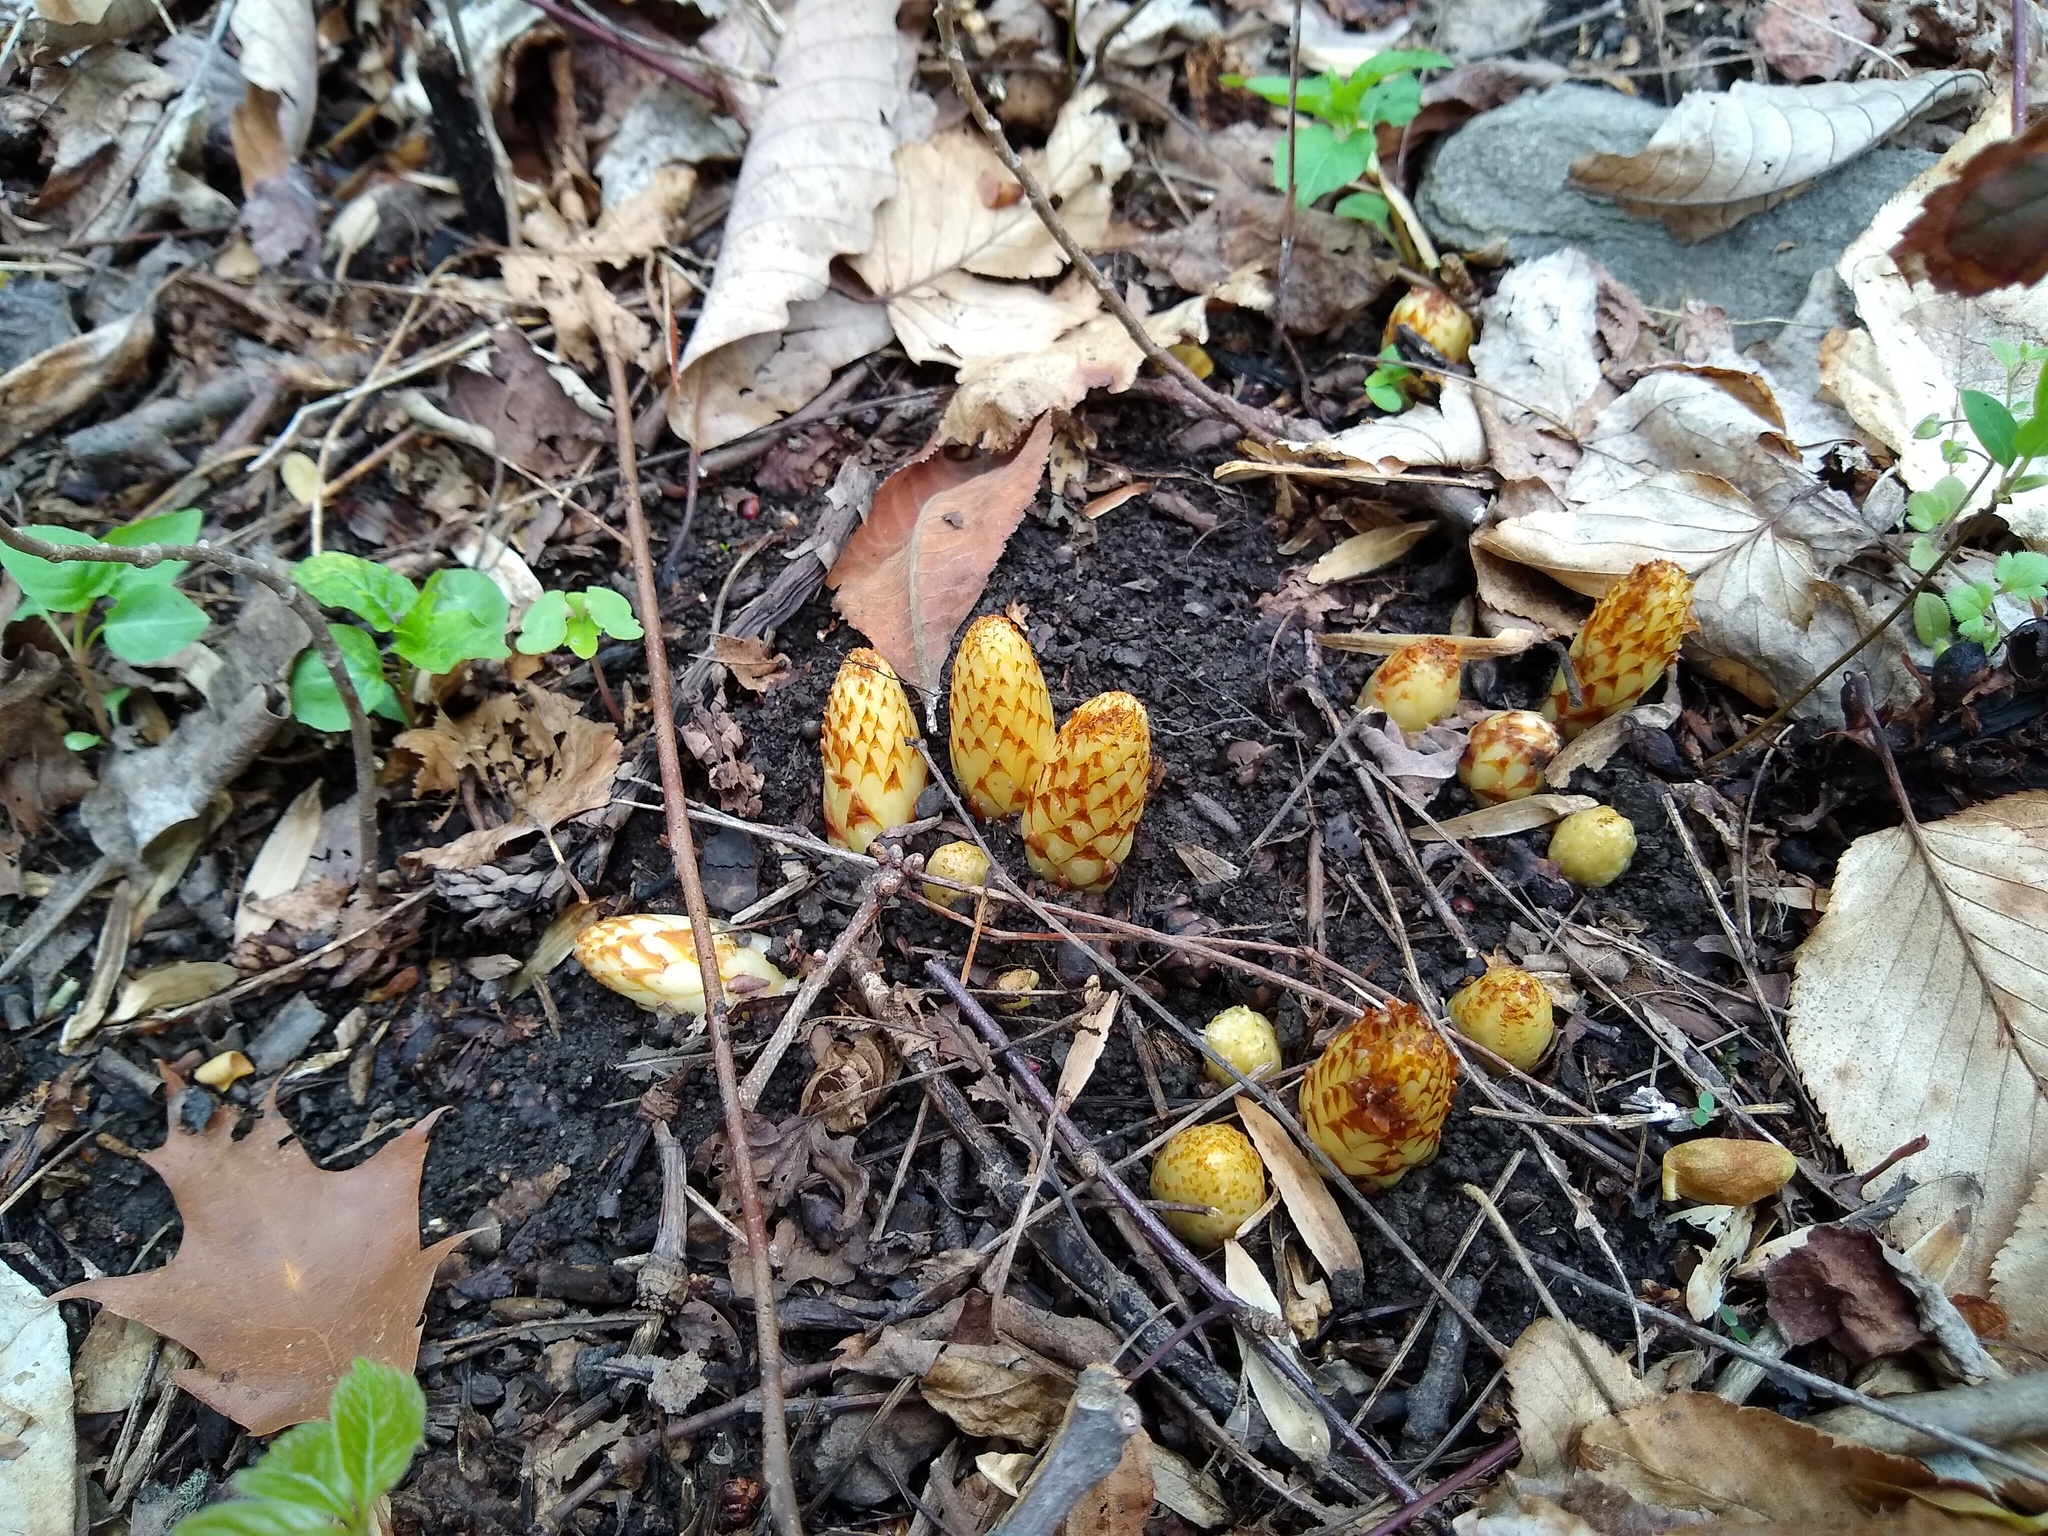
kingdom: Plantae
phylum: Tracheophyta
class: Magnoliopsida
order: Lamiales
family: Orobanchaceae
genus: Conopholis
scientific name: Conopholis americana
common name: American cancer-root
